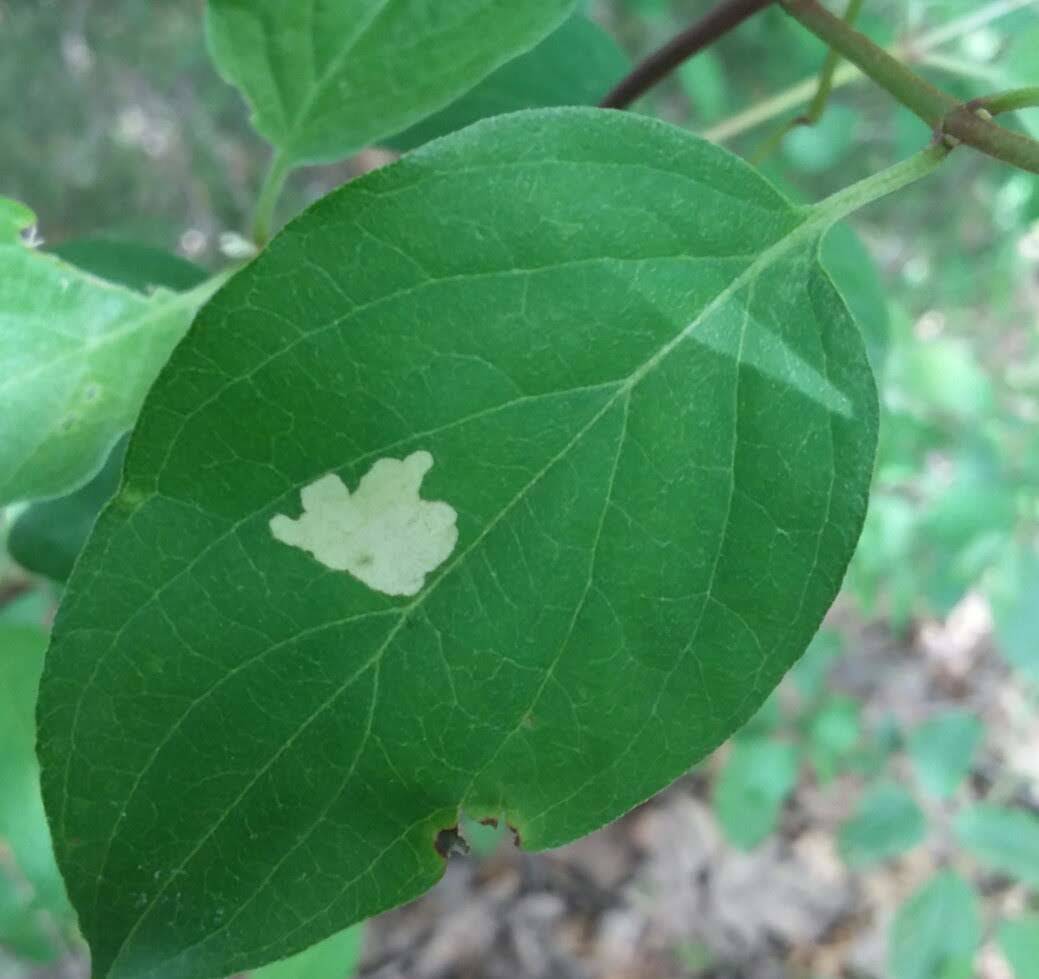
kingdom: Animalia
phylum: Arthropoda
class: Insecta
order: Lepidoptera
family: Coleophoridae
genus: Coleophora
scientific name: Coleophora cornella
